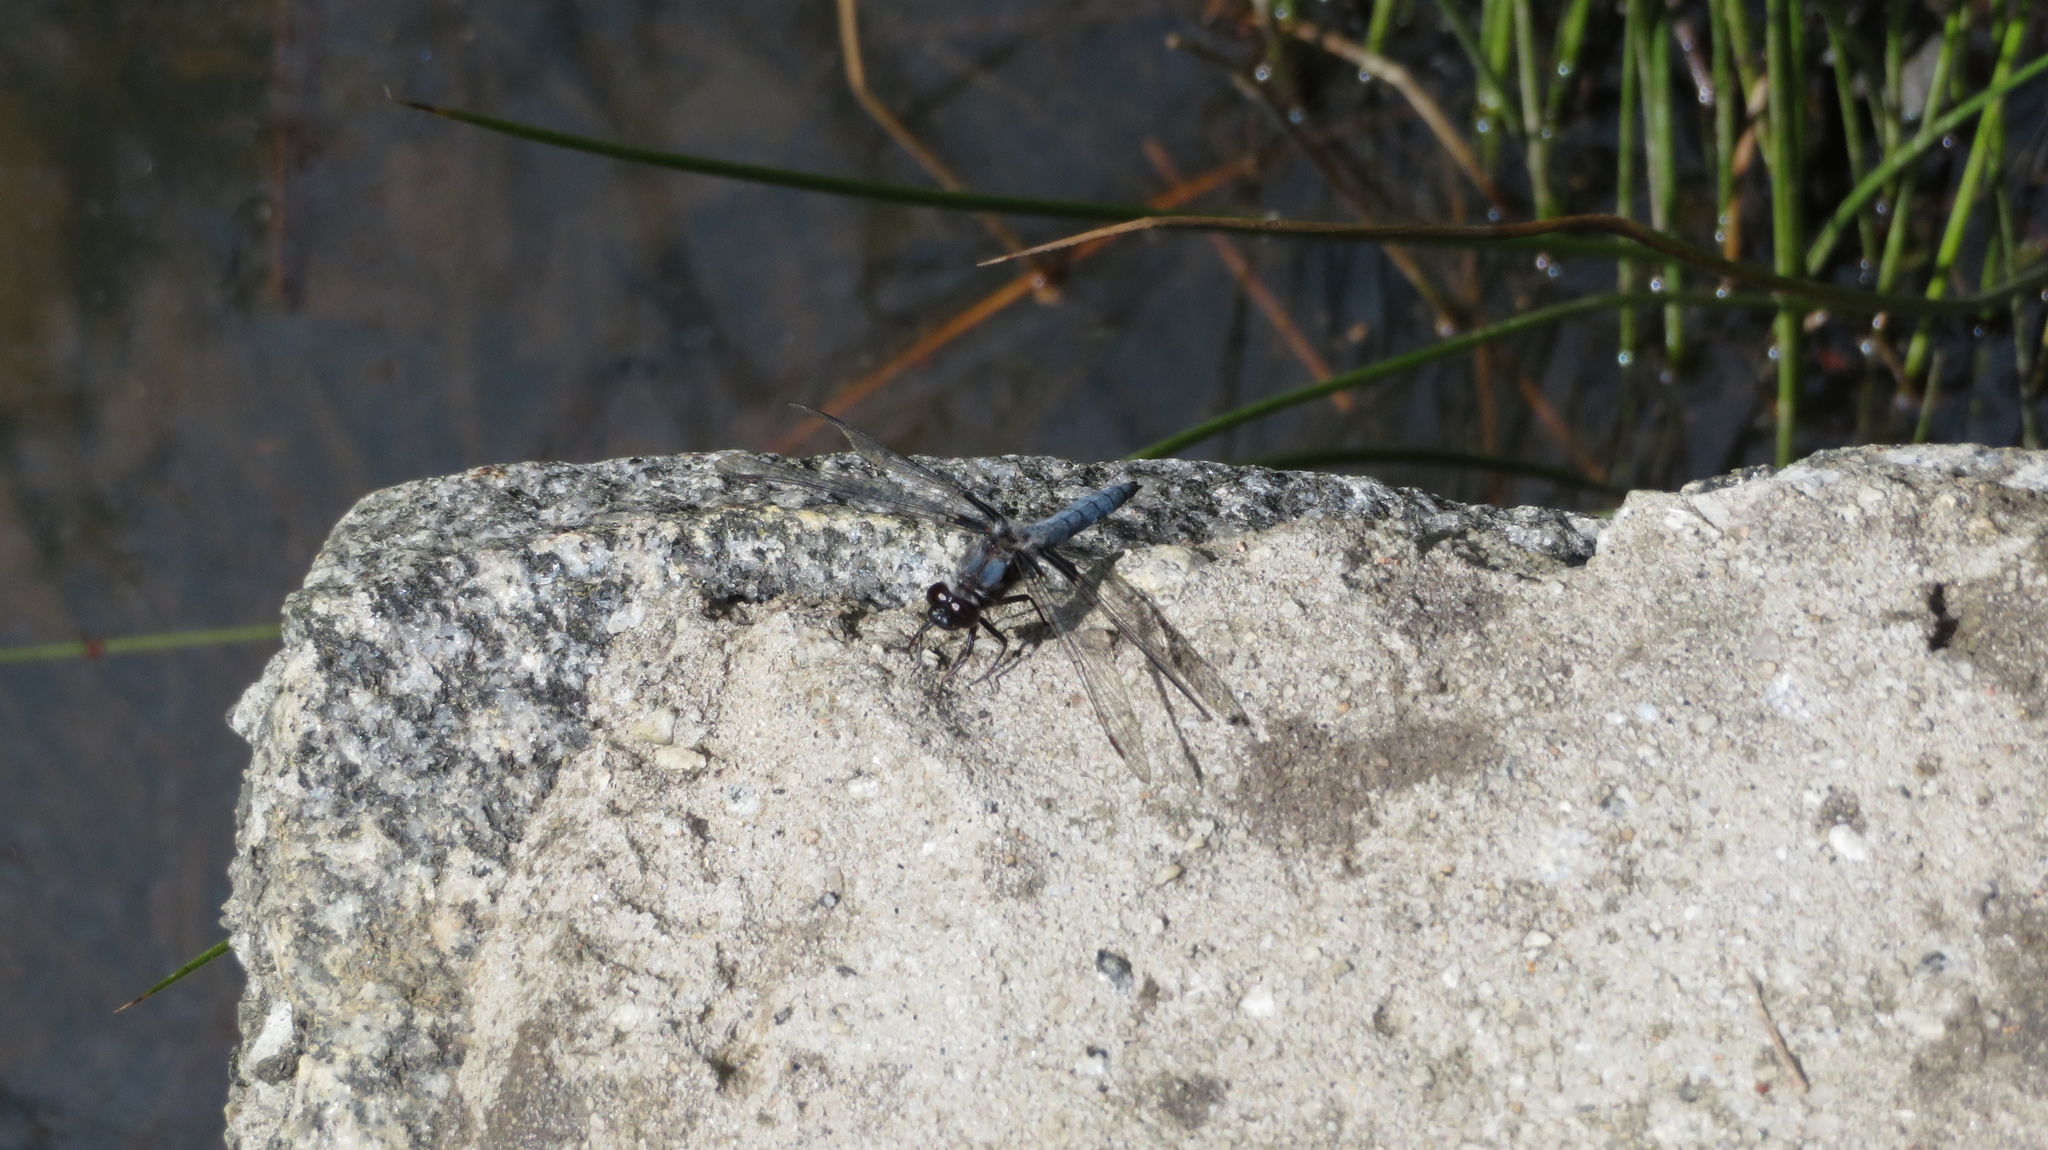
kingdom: Animalia
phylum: Arthropoda
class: Insecta
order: Odonata
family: Libellulidae
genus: Ladona
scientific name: Ladona deplanata
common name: Blue corporal
